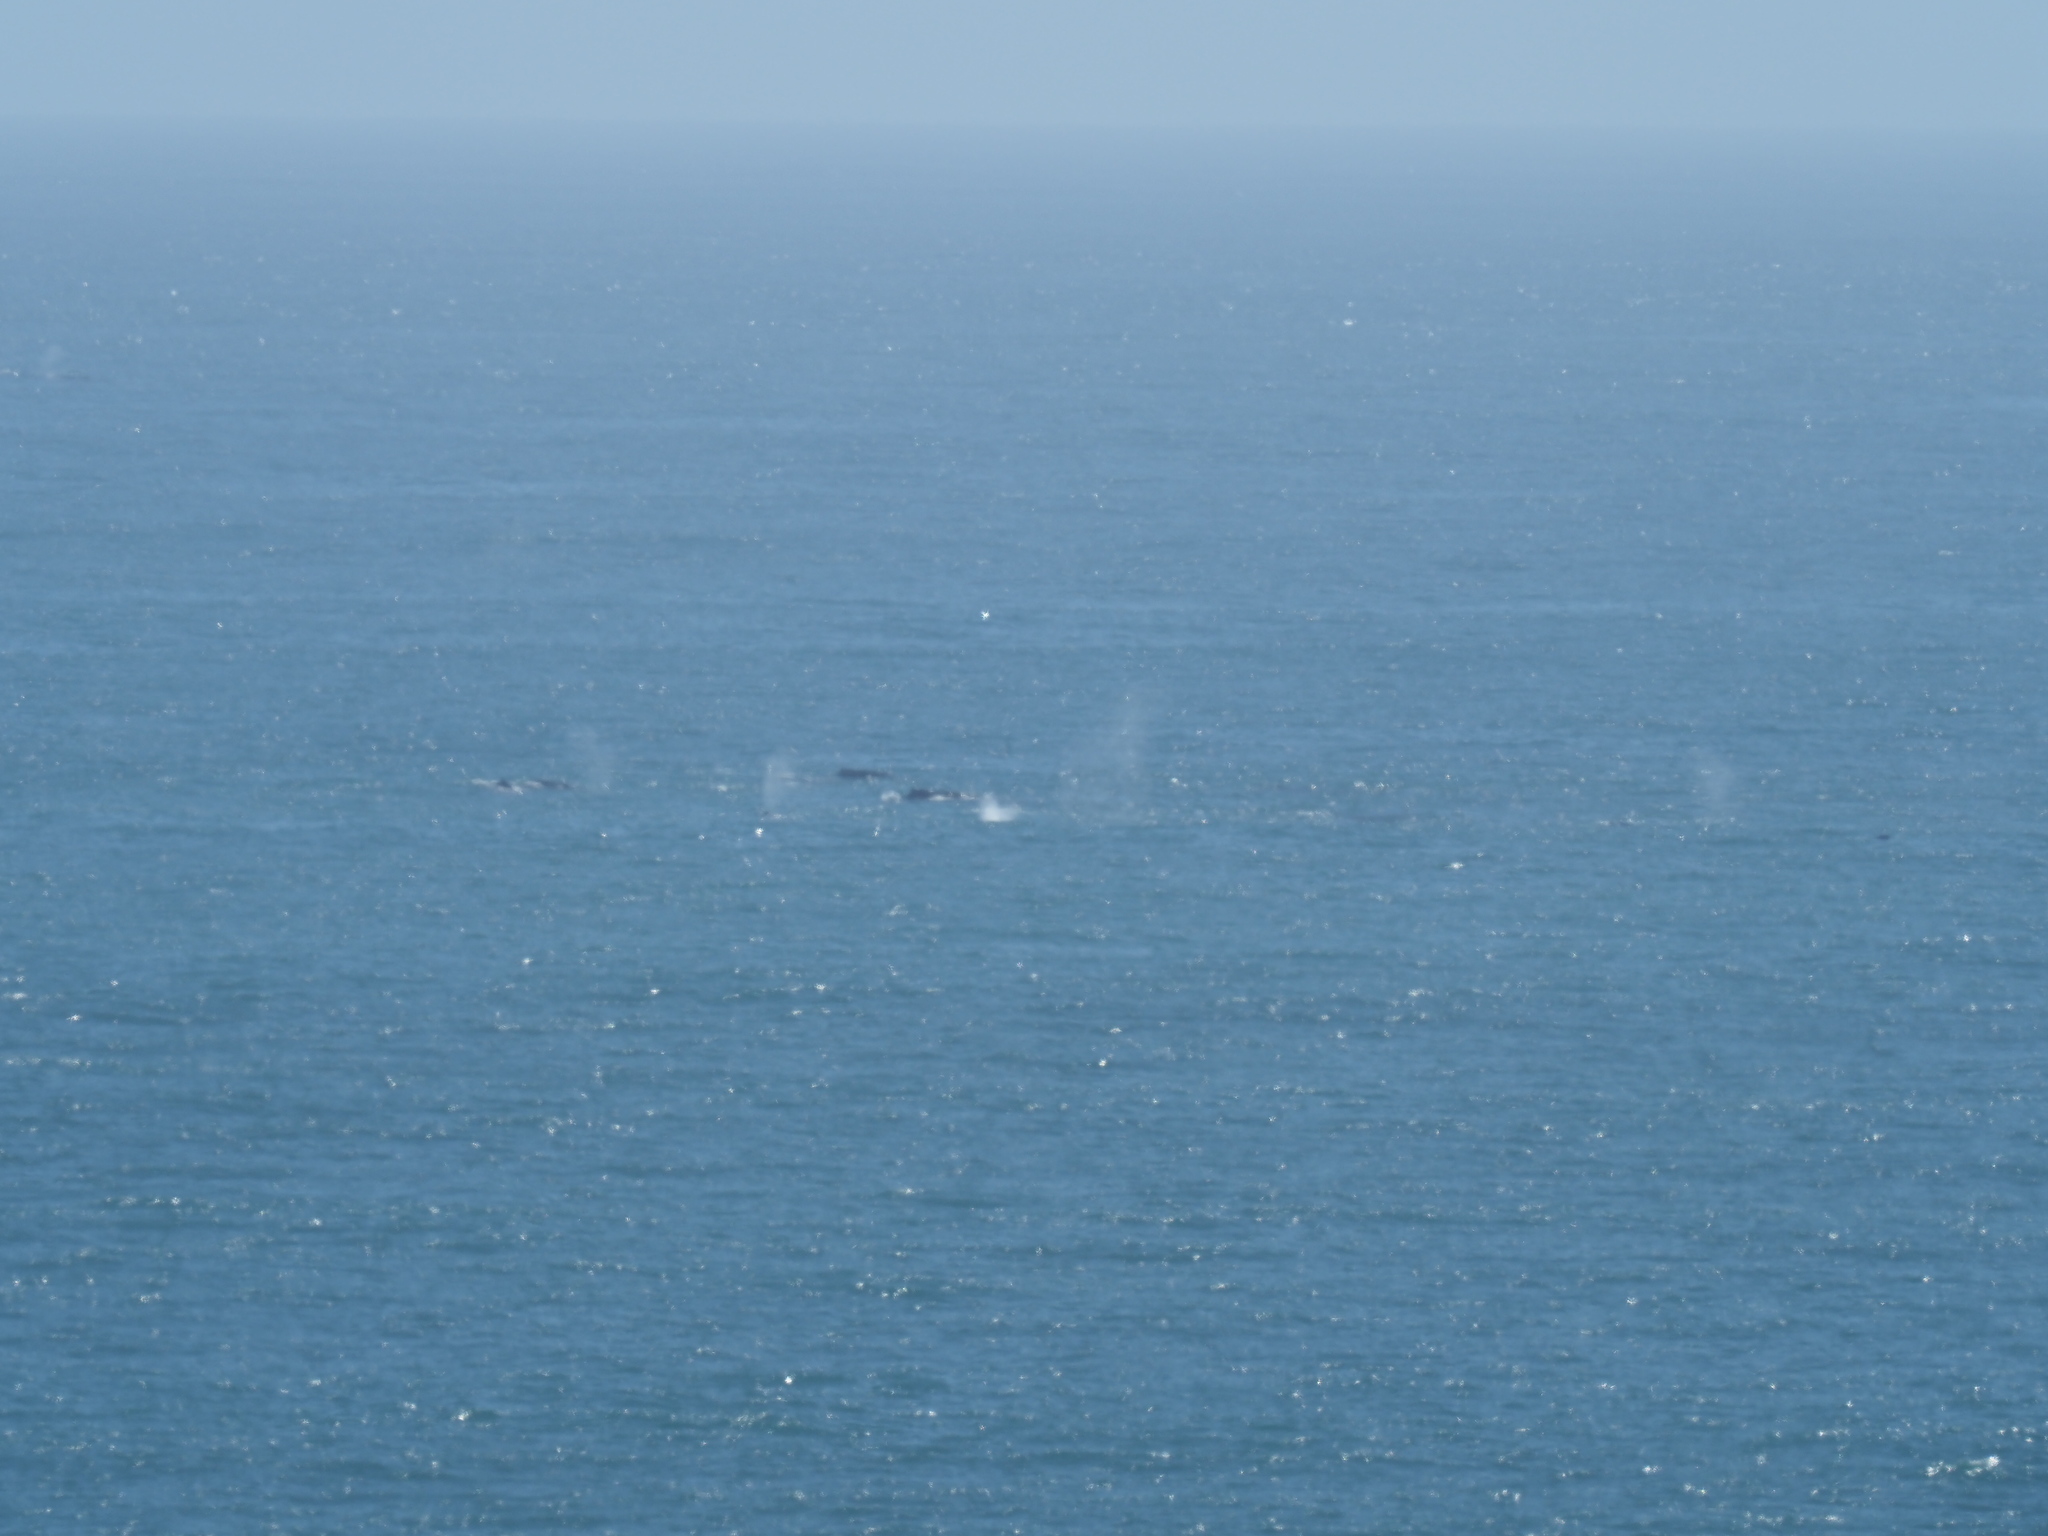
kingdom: Animalia
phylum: Chordata
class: Mammalia
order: Cetacea
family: Balaenopteridae
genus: Megaptera
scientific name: Megaptera novaeangliae
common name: Humpback whale
